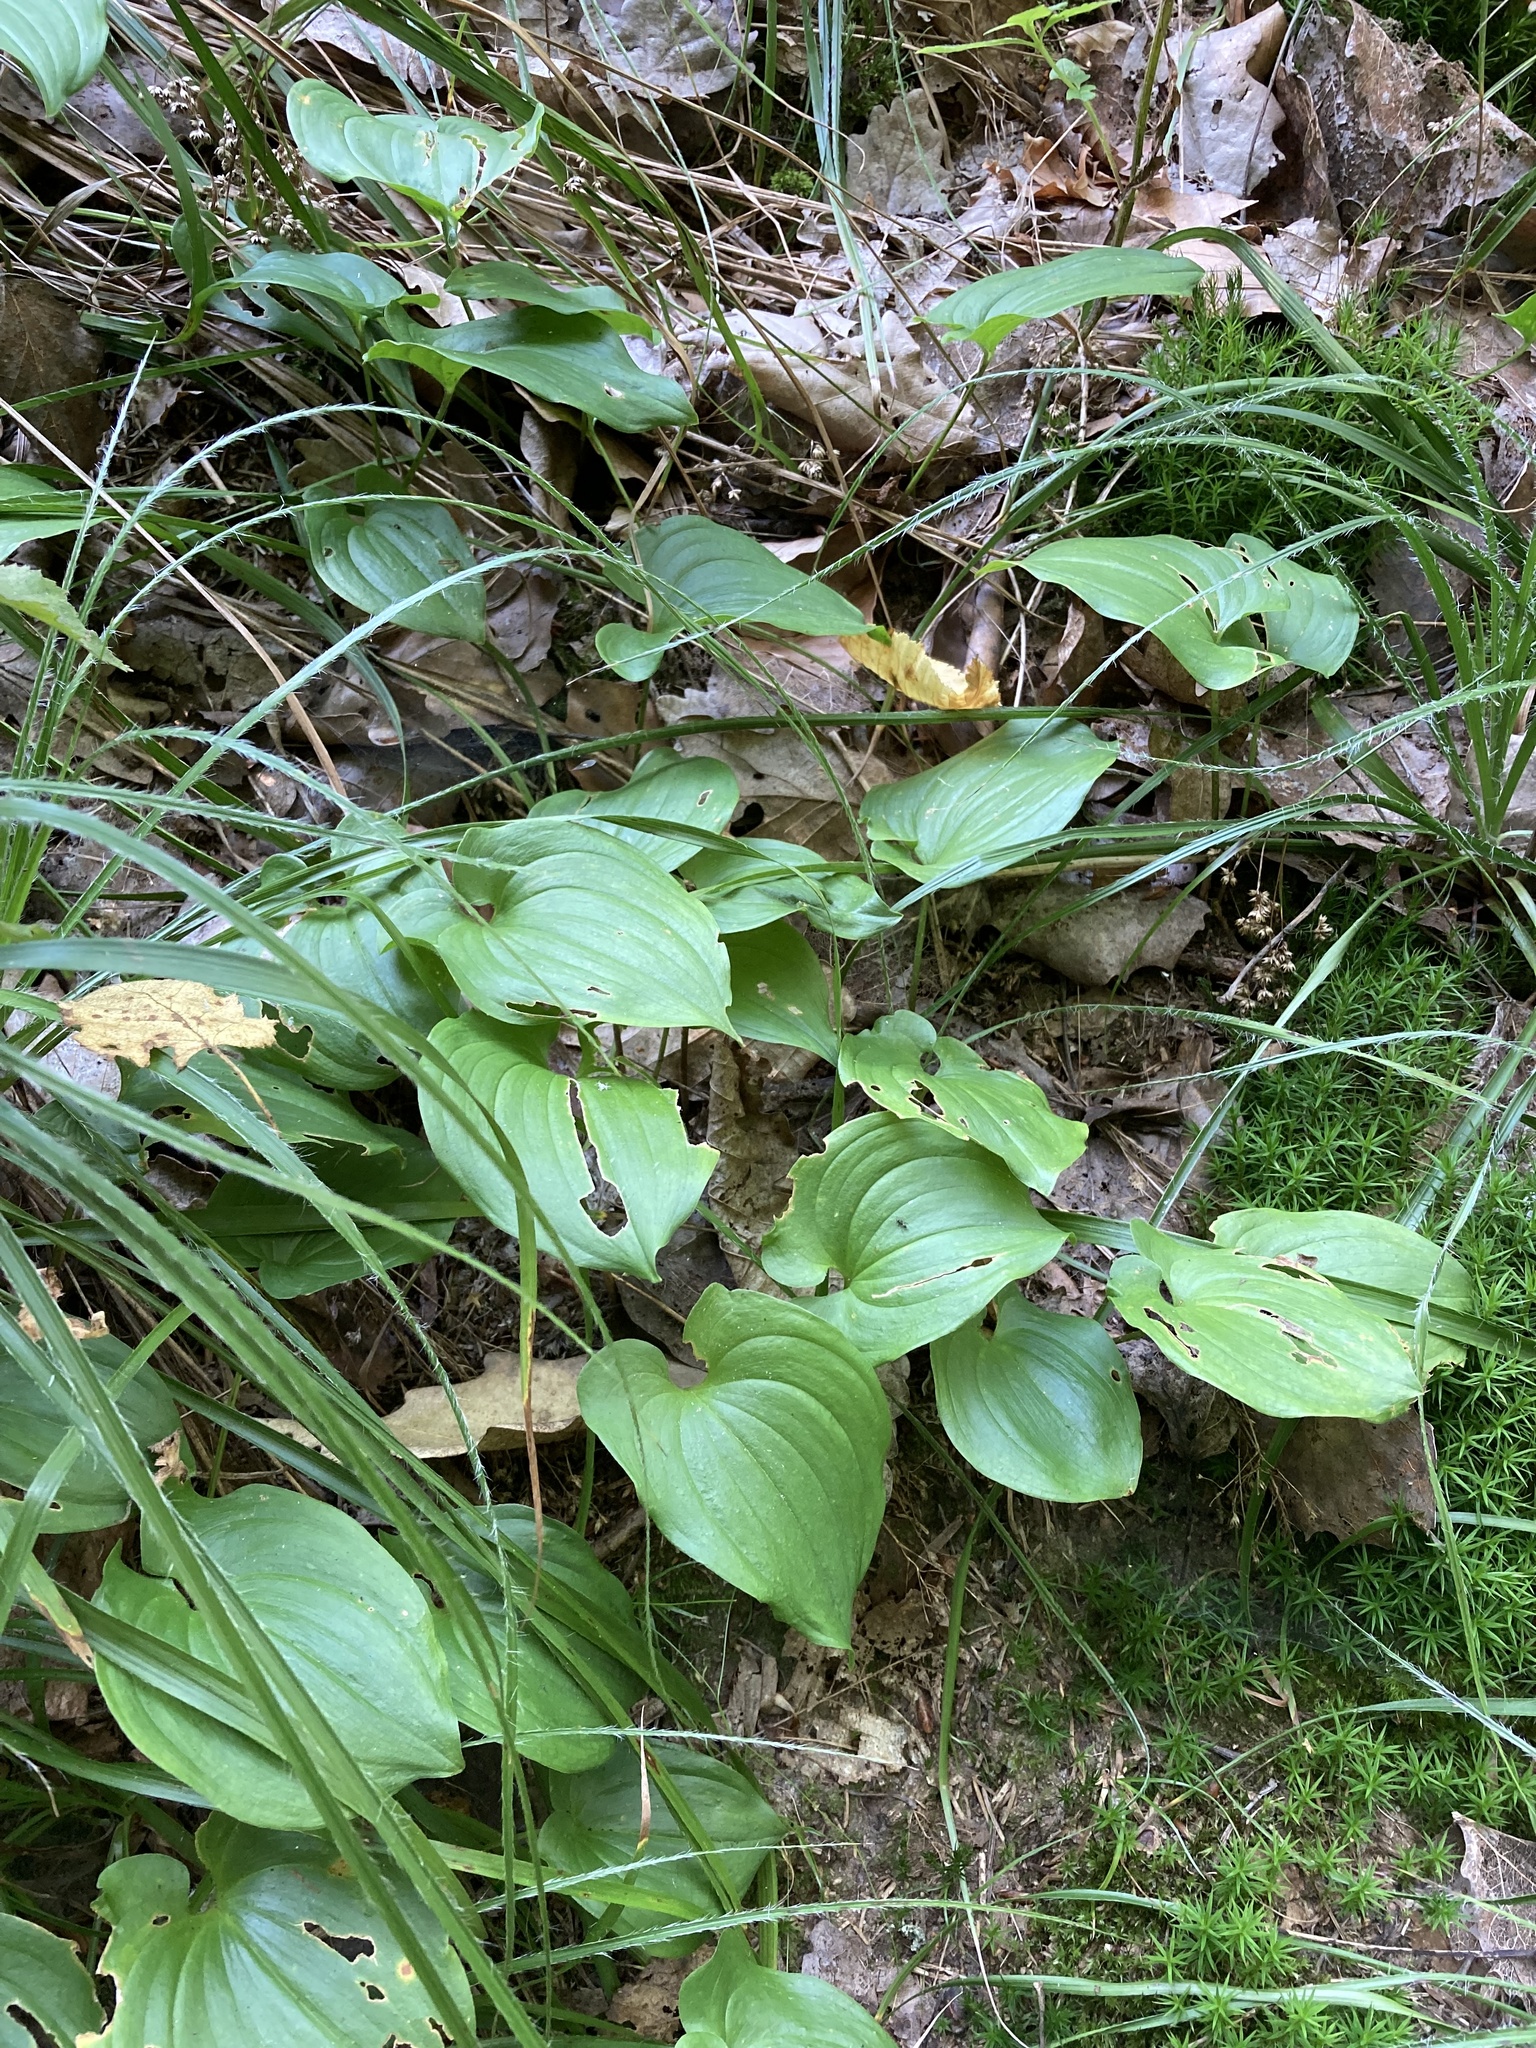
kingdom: Plantae
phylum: Tracheophyta
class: Liliopsida
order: Asparagales
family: Asparagaceae
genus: Maianthemum
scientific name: Maianthemum bifolium
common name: May lily
